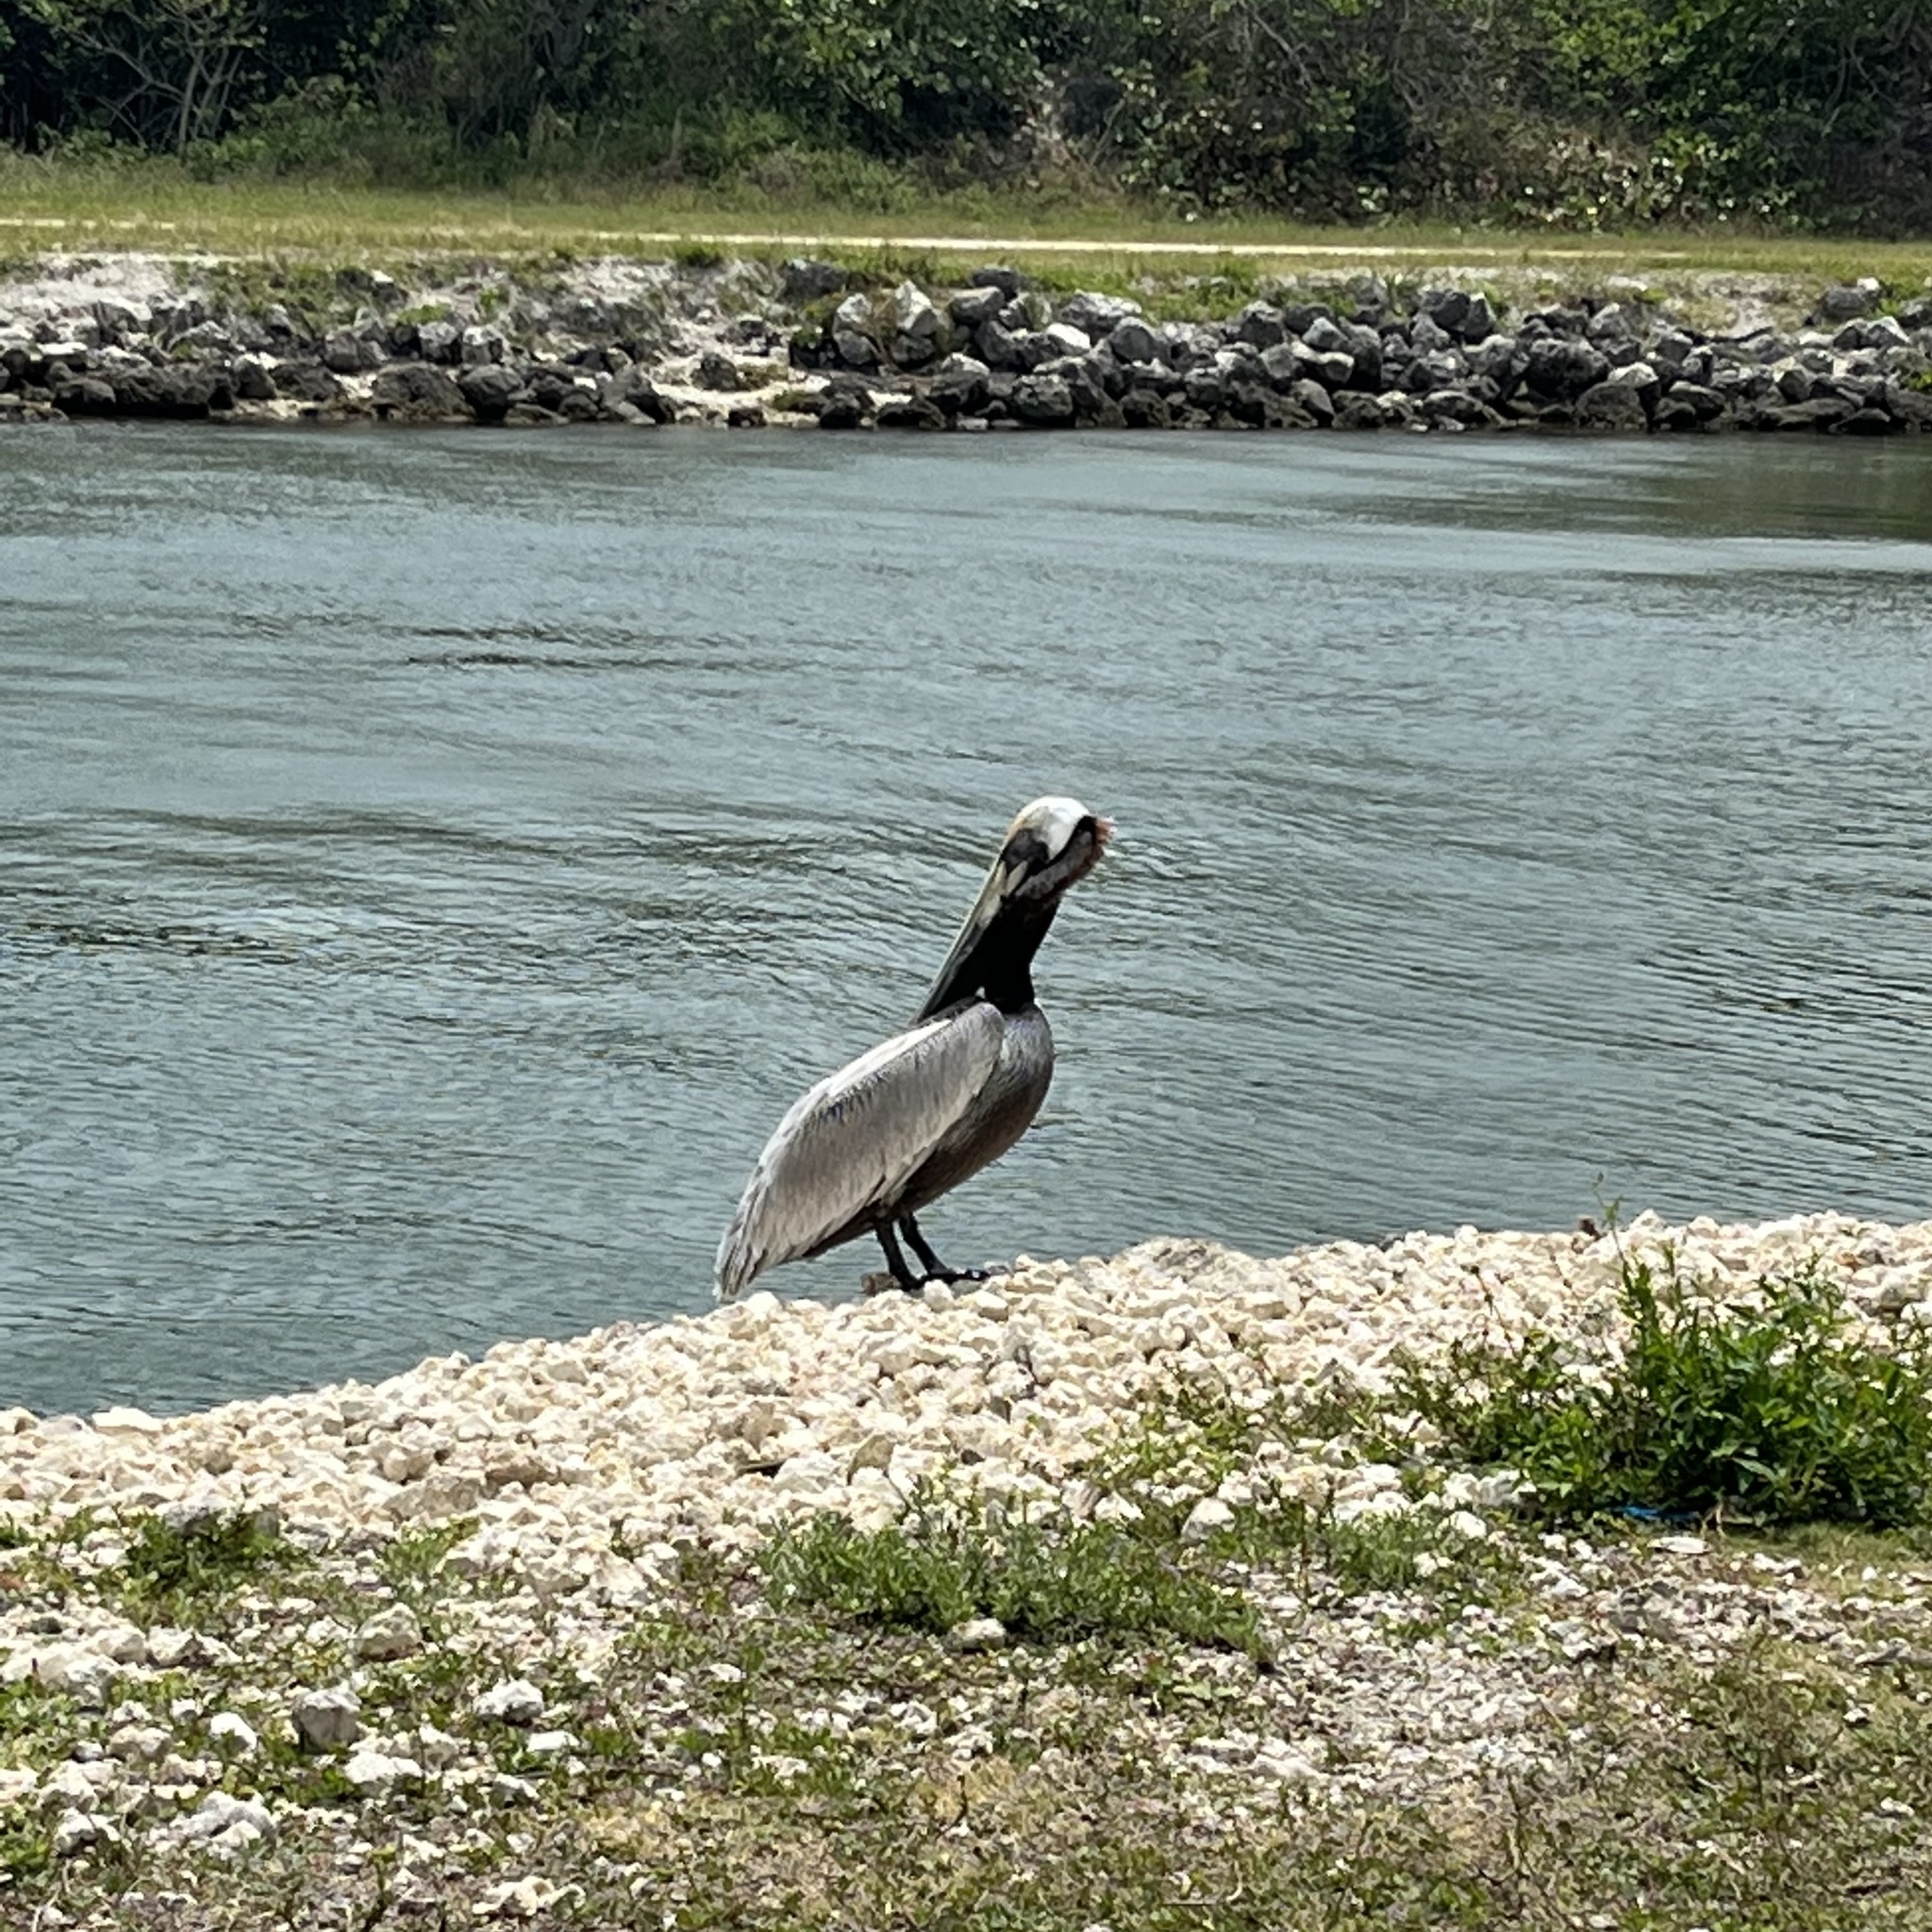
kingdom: Animalia
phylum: Chordata
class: Aves
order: Pelecaniformes
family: Pelecanidae
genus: Pelecanus
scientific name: Pelecanus occidentalis
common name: Brown pelican
